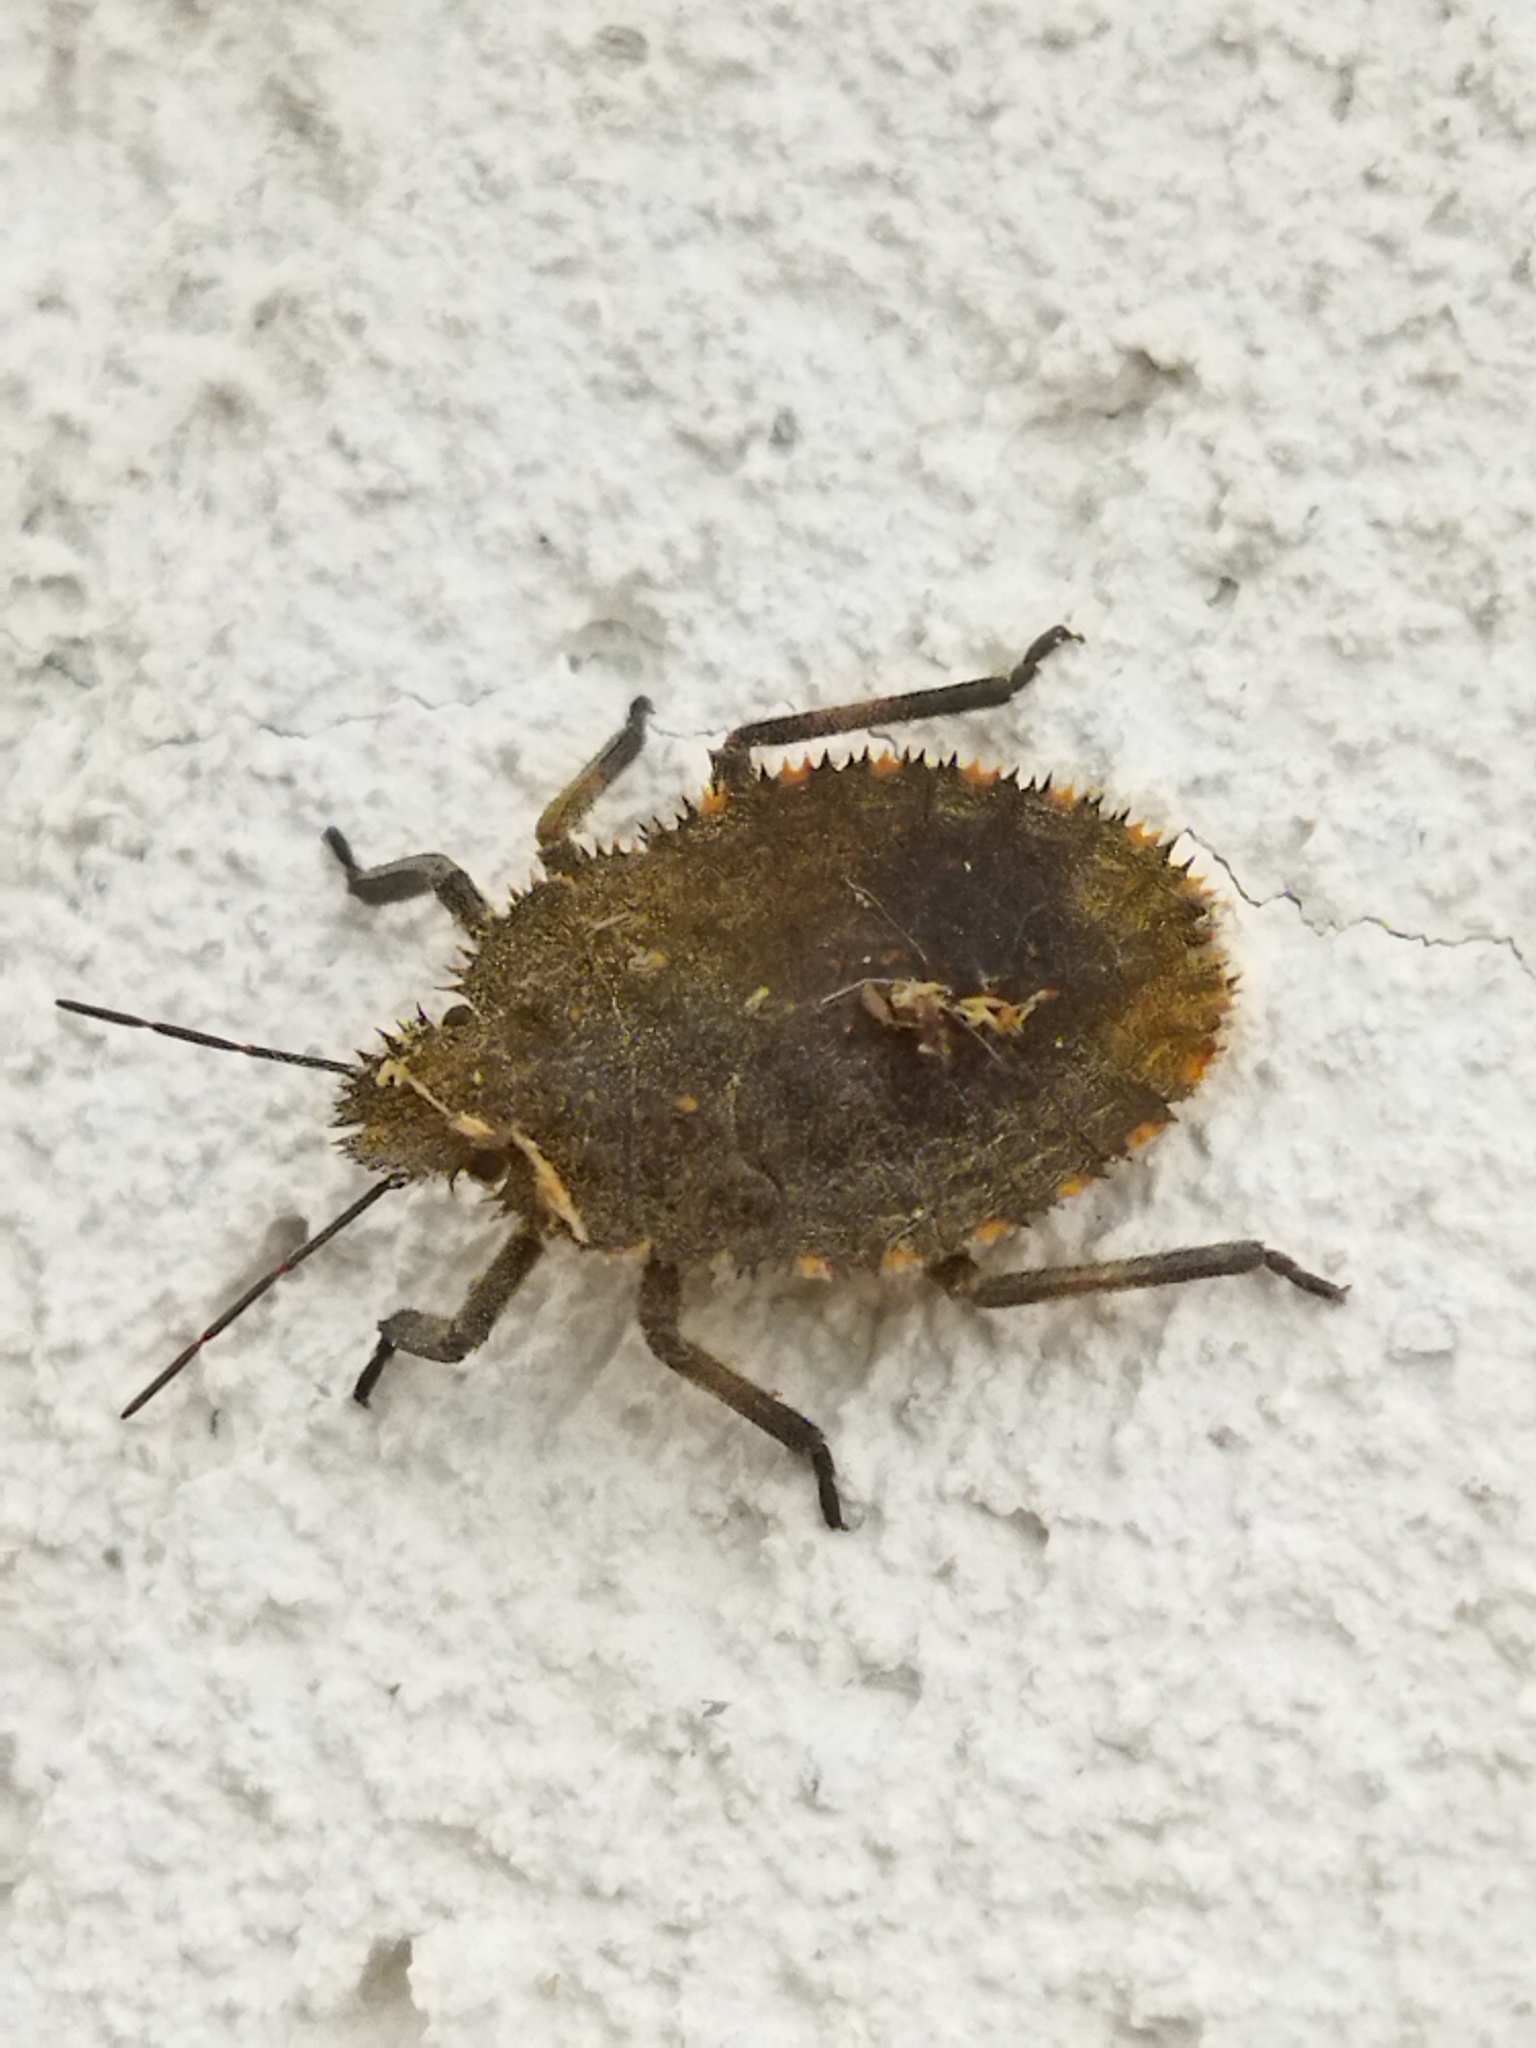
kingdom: Animalia
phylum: Arthropoda
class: Insecta
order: Hemiptera
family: Pentatomidae
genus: Mustha
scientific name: Mustha spinosula
